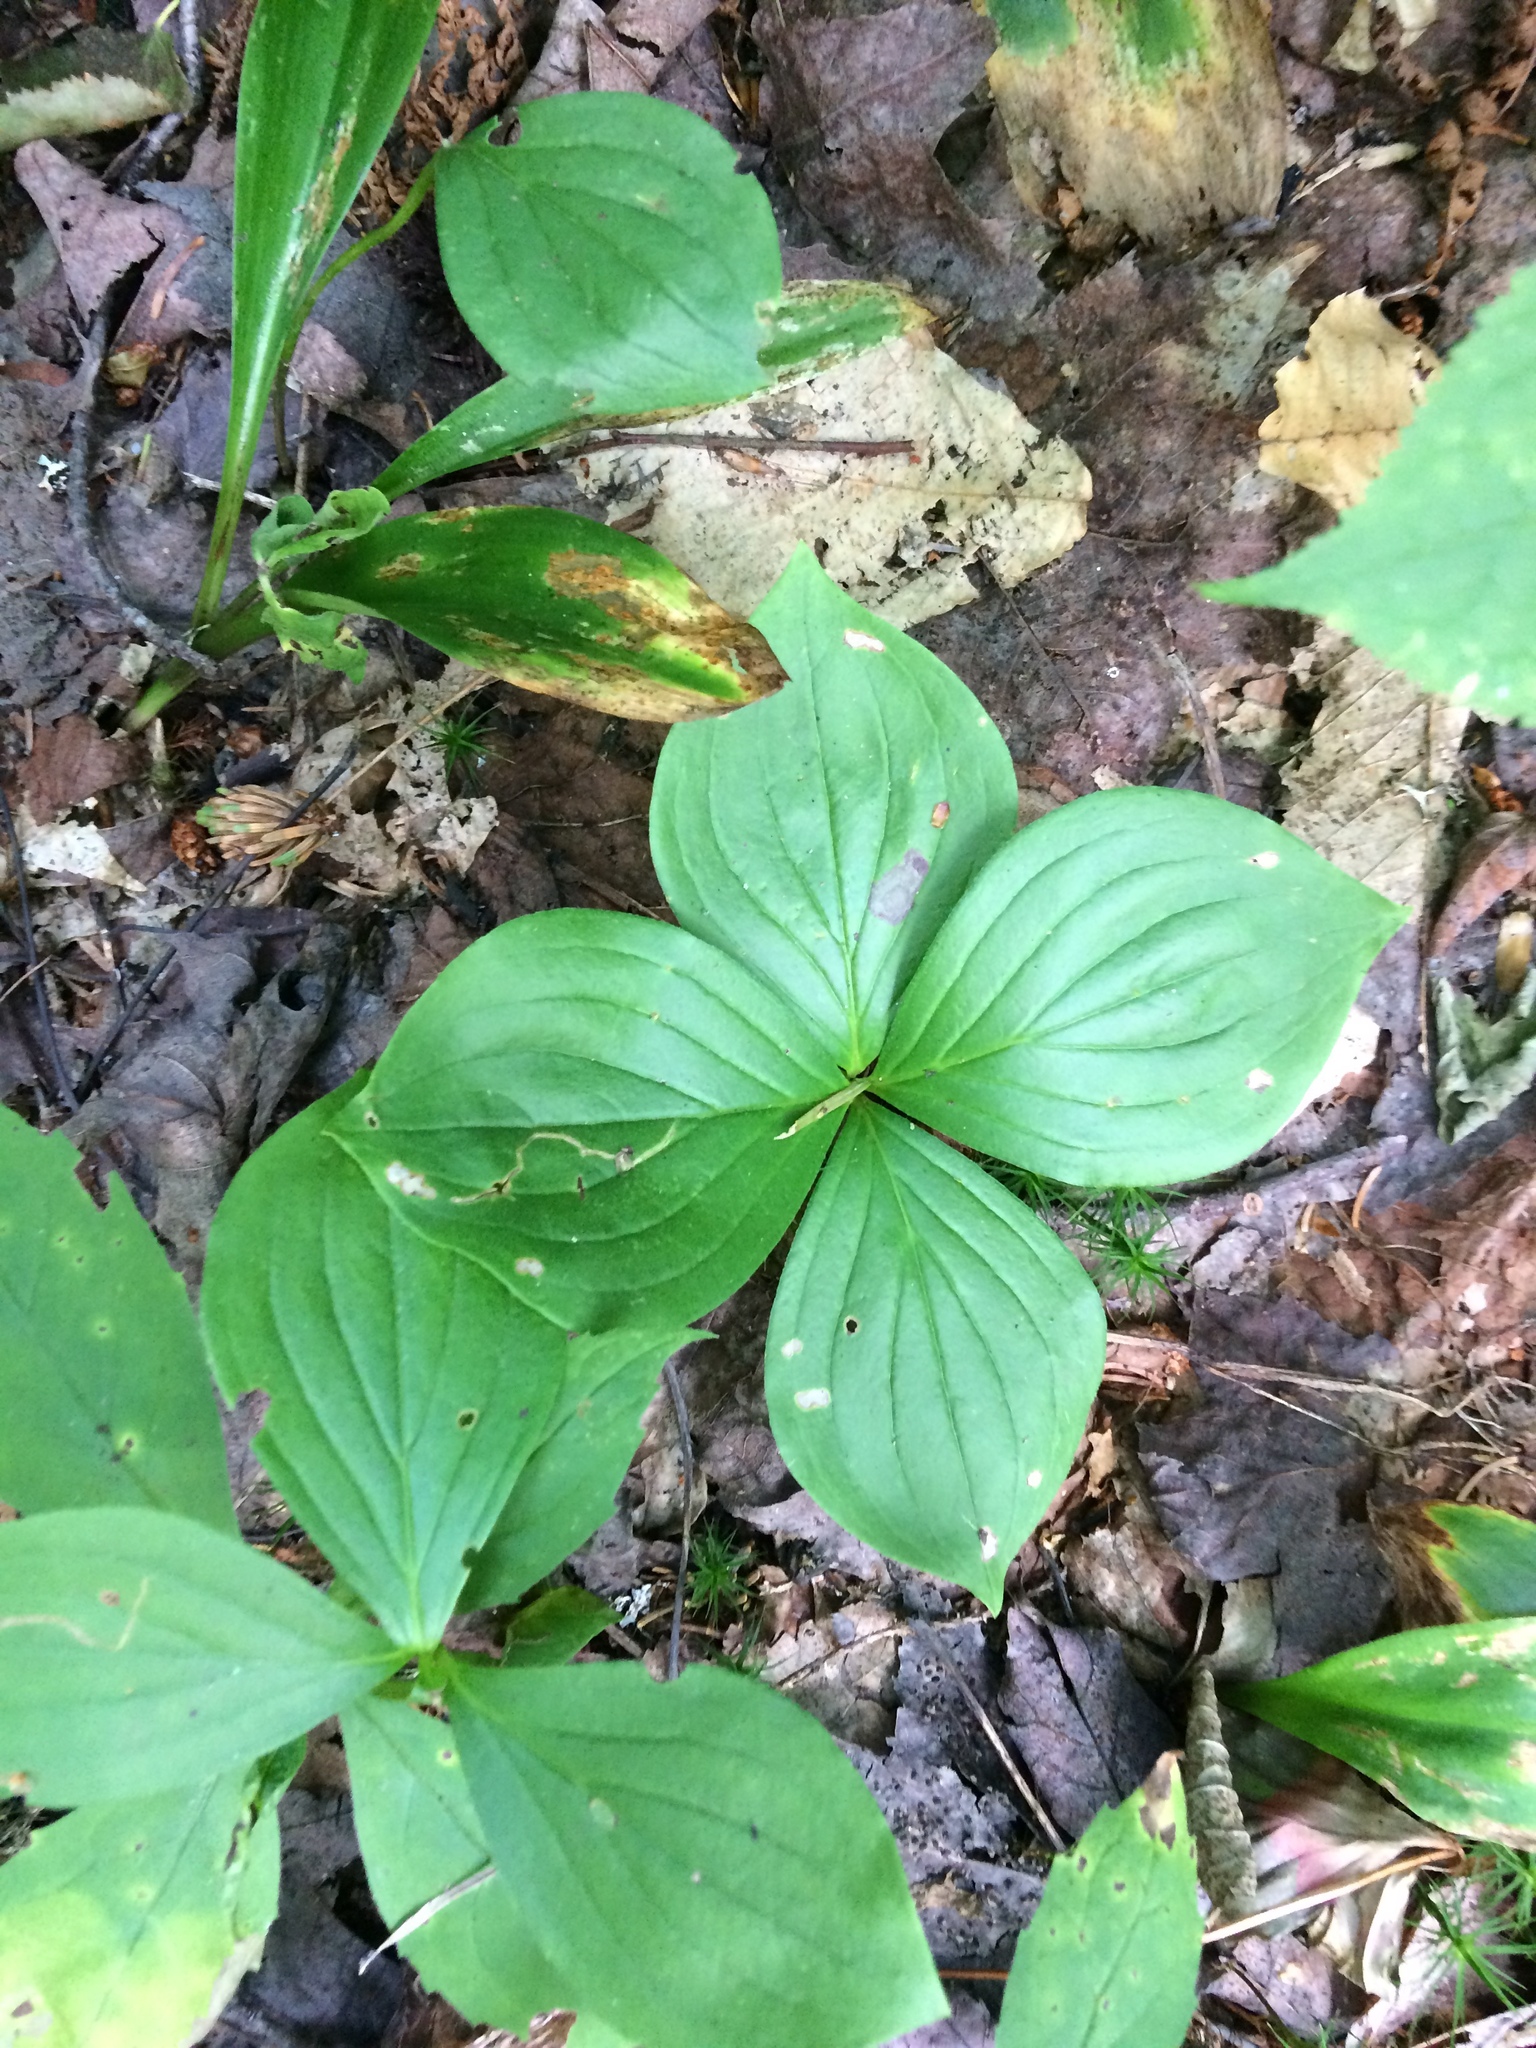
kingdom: Plantae
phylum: Tracheophyta
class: Magnoliopsida
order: Cornales
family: Cornaceae
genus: Cornus
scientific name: Cornus canadensis
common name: Creeping dogwood
